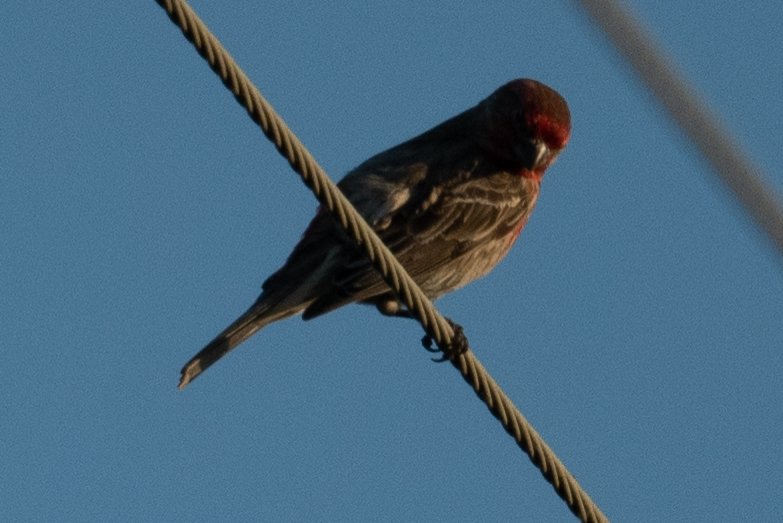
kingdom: Animalia
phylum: Chordata
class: Aves
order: Passeriformes
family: Fringillidae
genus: Haemorhous
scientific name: Haemorhous mexicanus
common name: House finch
